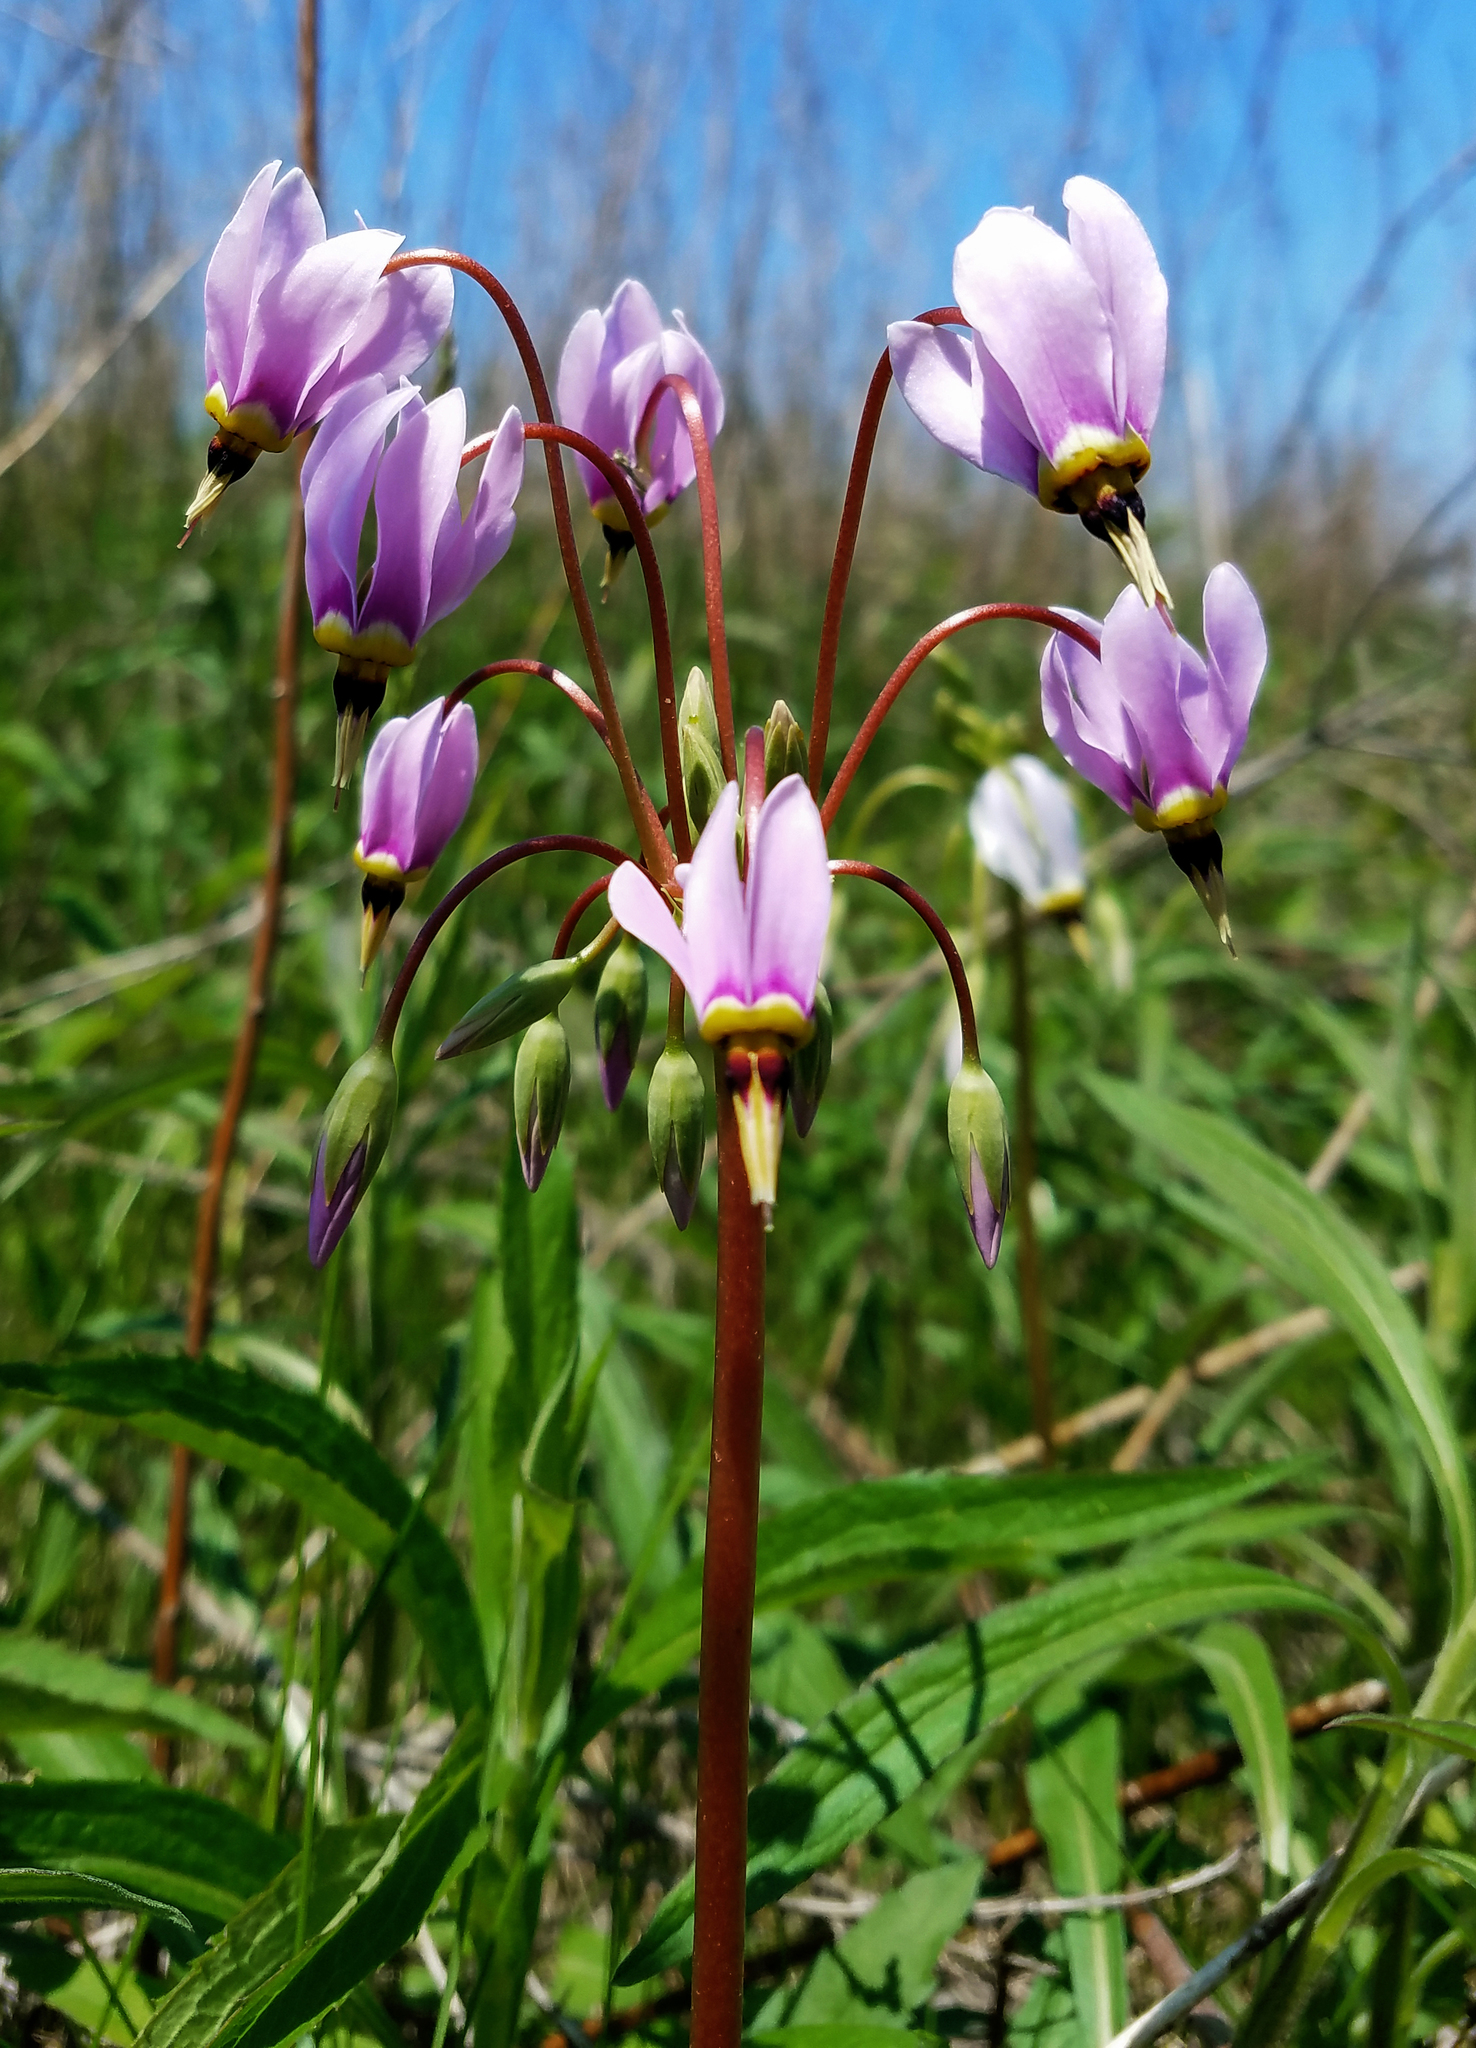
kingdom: Plantae
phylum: Tracheophyta
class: Magnoliopsida
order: Ericales
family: Primulaceae
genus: Dodecatheon
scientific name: Dodecatheon meadia
